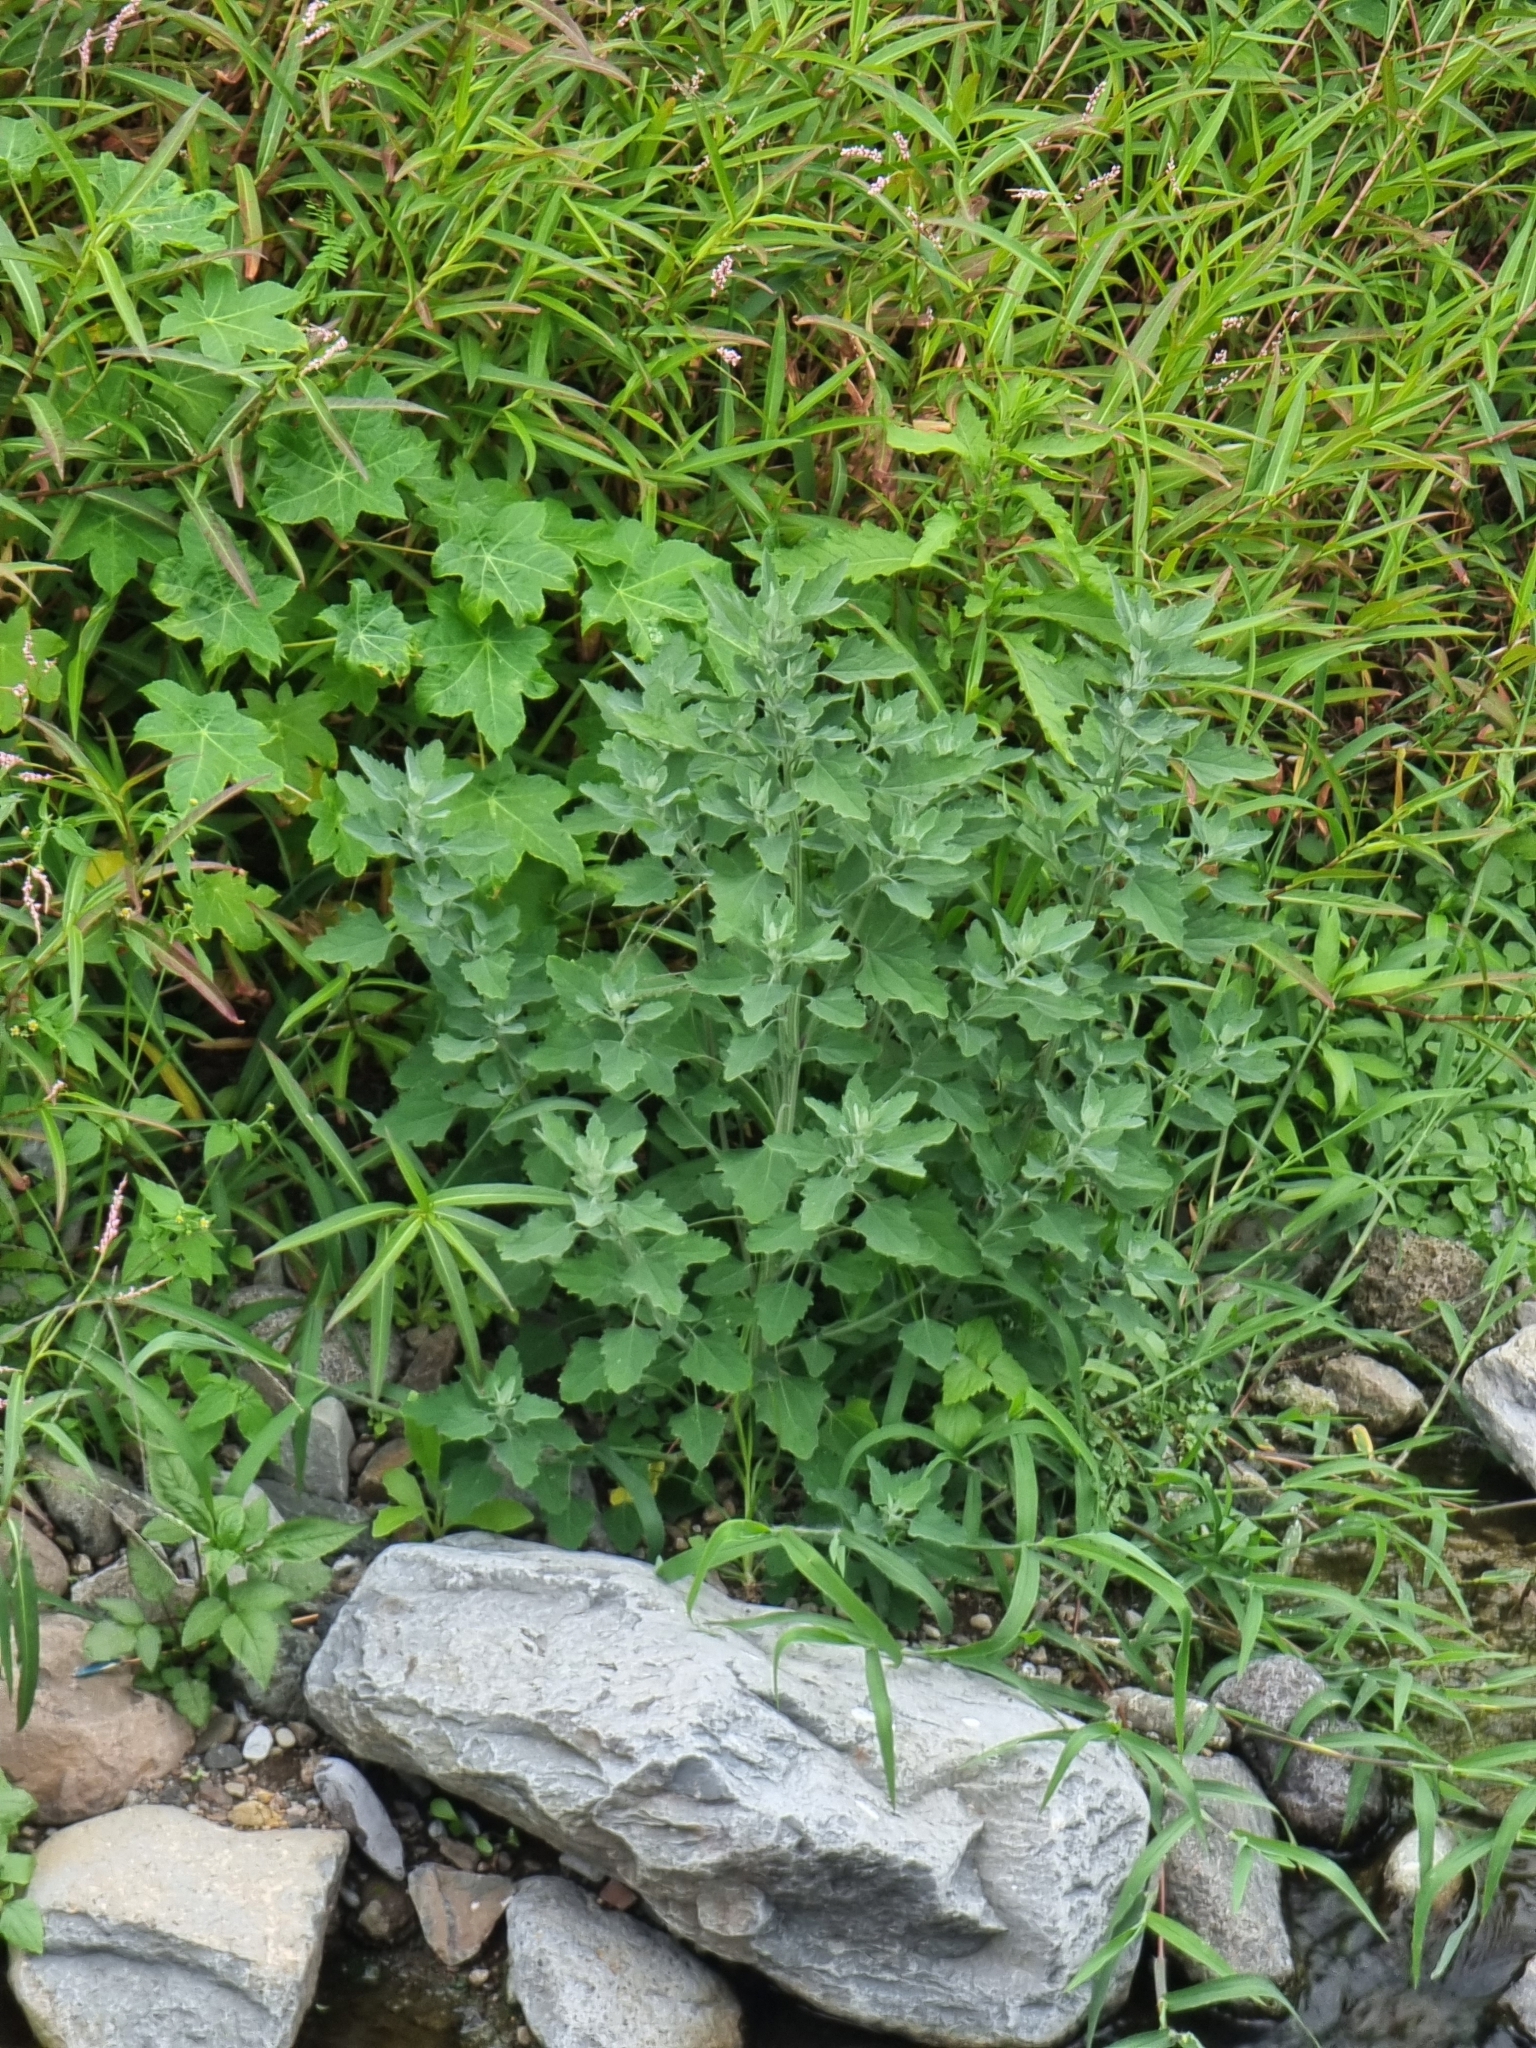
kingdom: Plantae
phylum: Tracheophyta
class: Magnoliopsida
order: Caryophyllales
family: Amaranthaceae
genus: Chenopodium
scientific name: Chenopodium album
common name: Fat-hen
